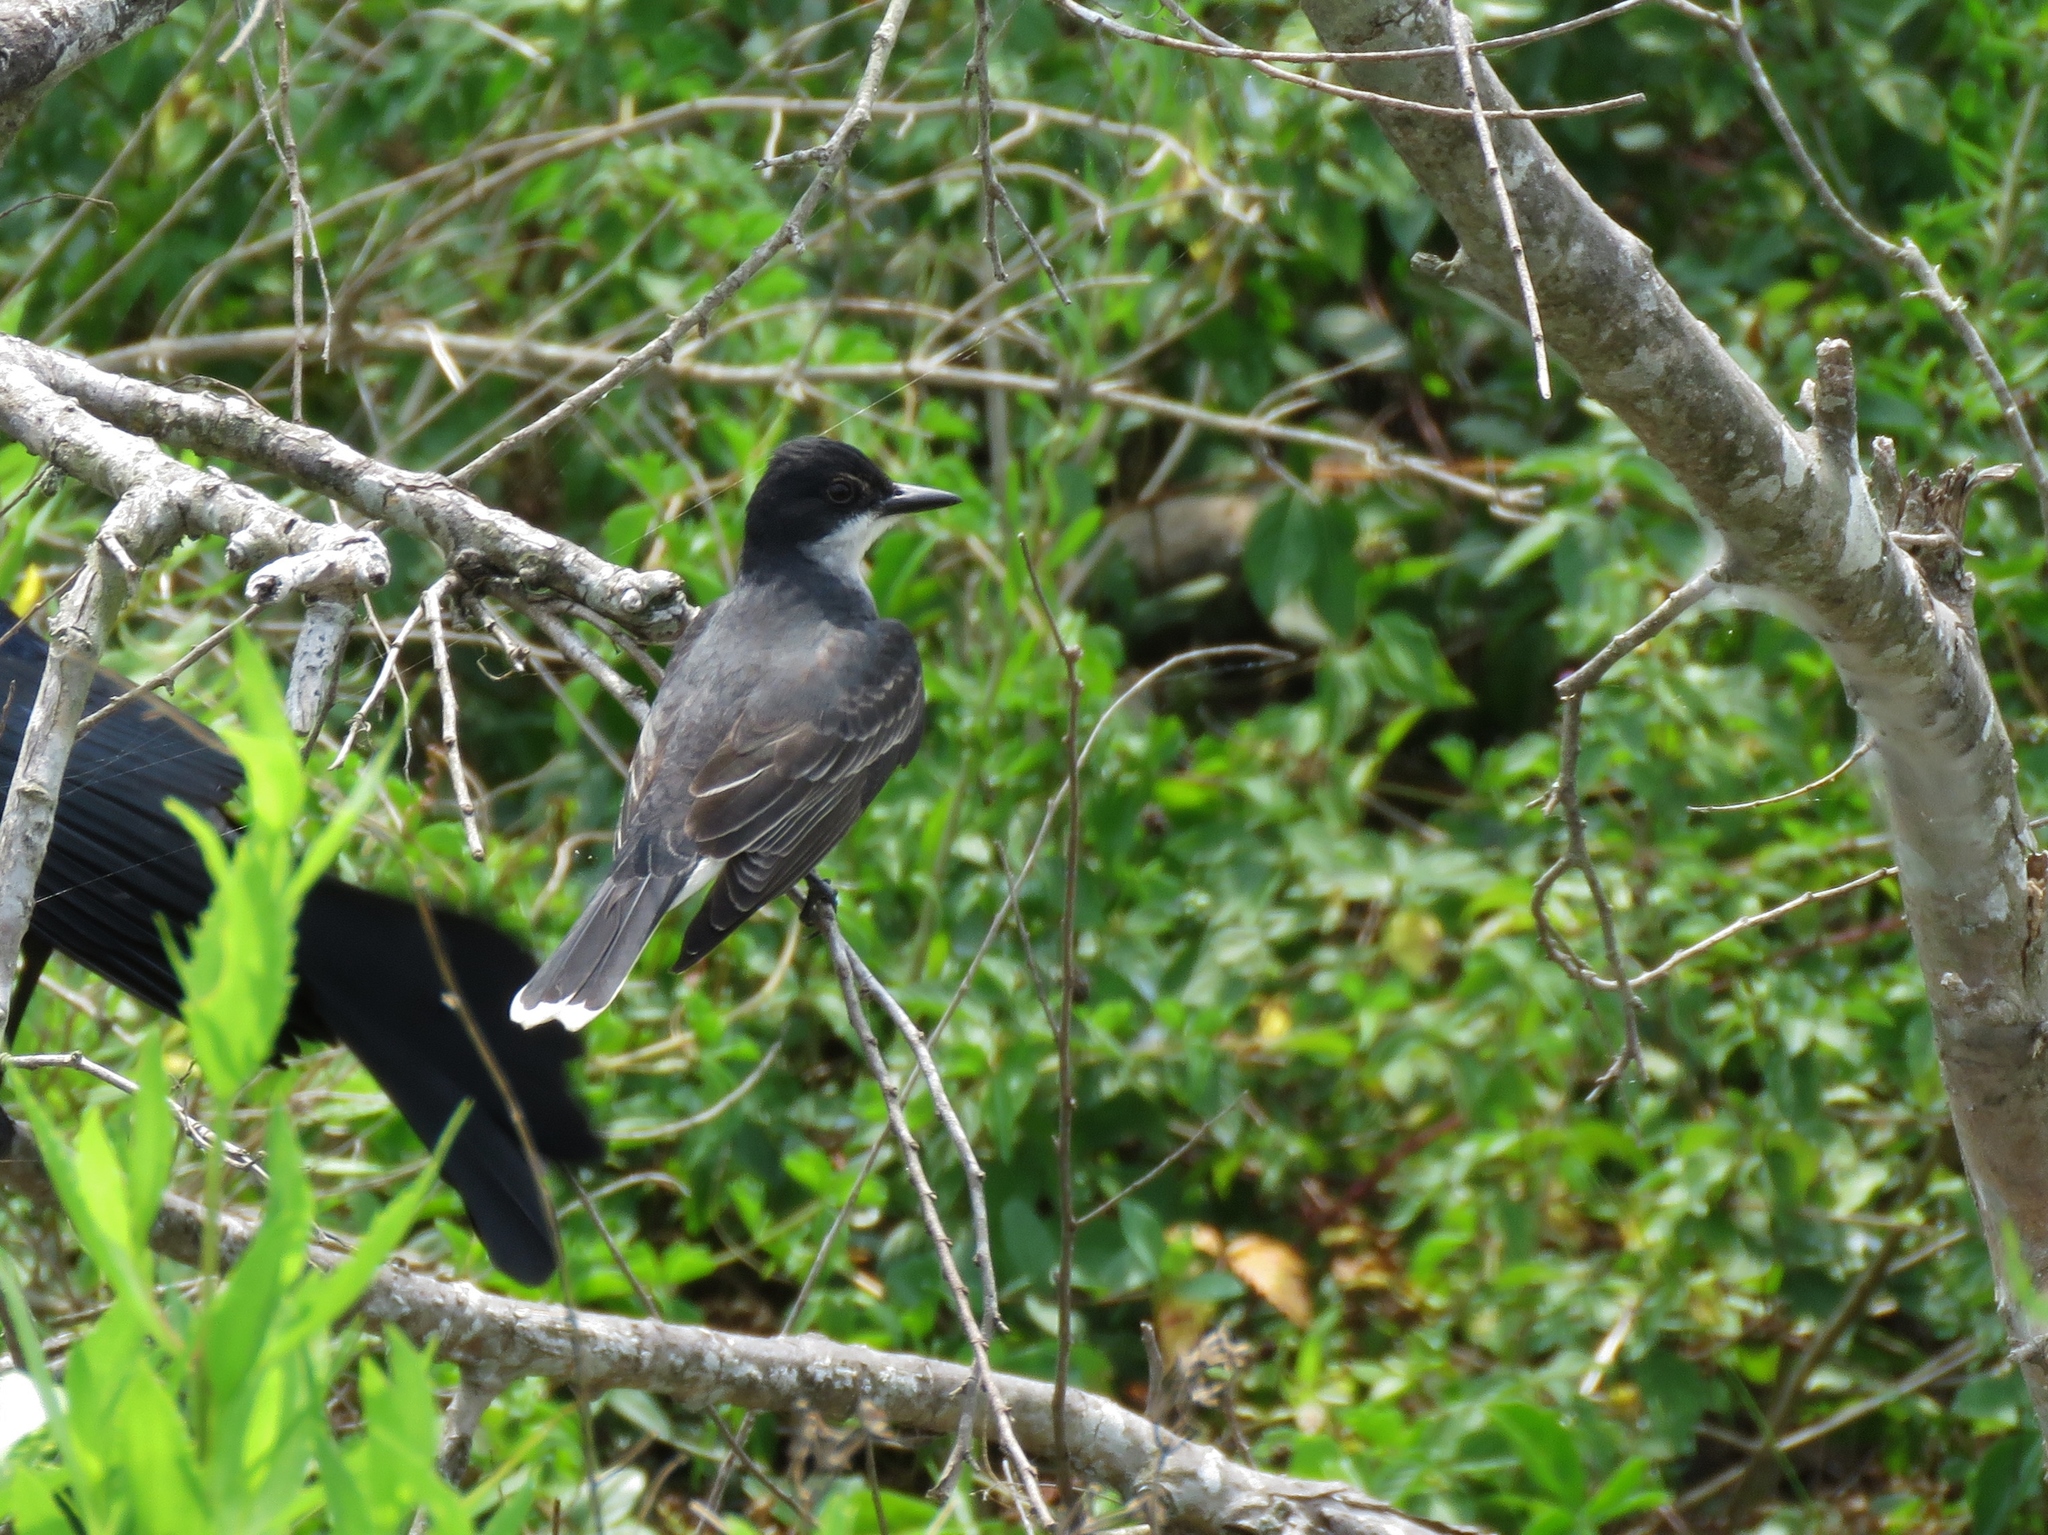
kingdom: Animalia
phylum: Chordata
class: Aves
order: Passeriformes
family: Tyrannidae
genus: Tyrannus
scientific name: Tyrannus tyrannus
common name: Eastern kingbird
